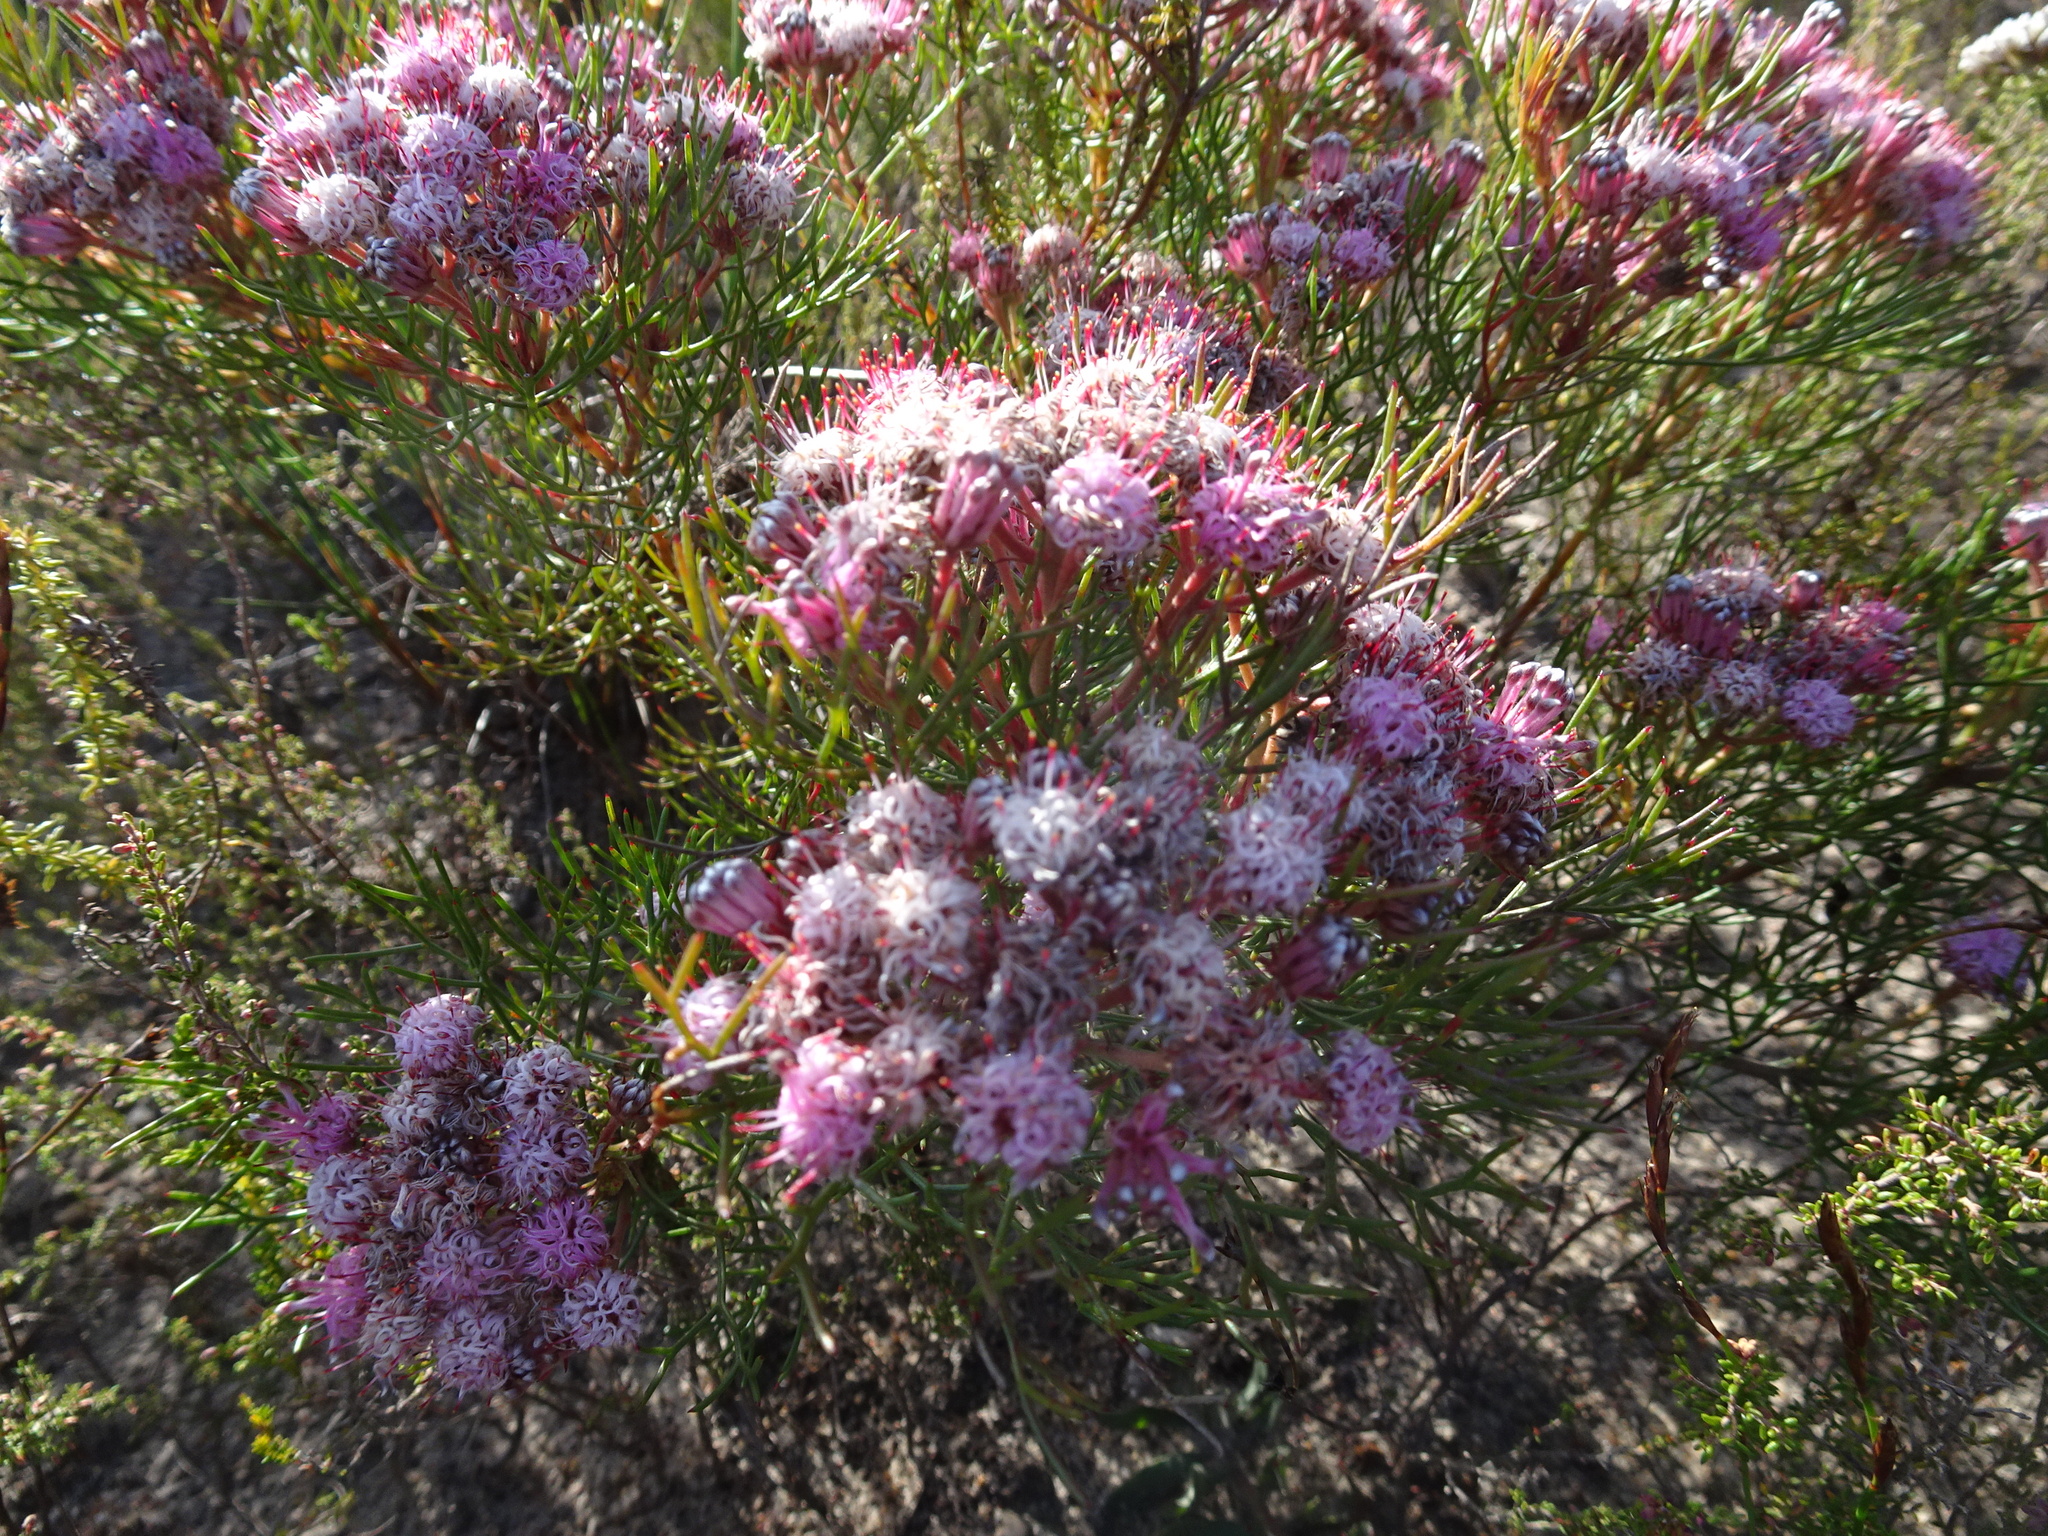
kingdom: Plantae
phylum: Tracheophyta
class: Magnoliopsida
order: Proteales
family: Proteaceae
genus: Serruria
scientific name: Serruria fasciflora
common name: Common pin spiderhead
